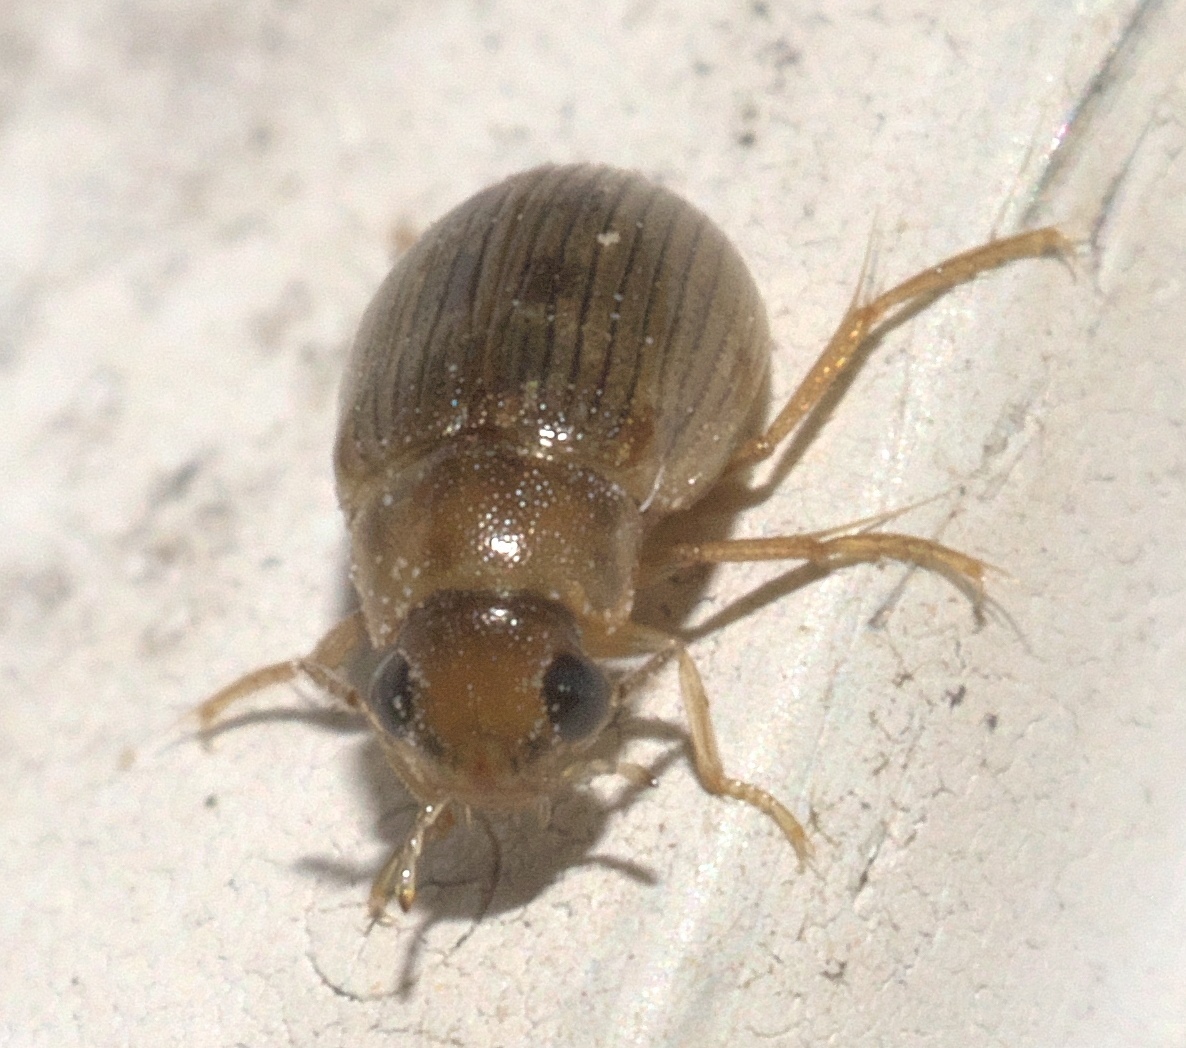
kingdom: Animalia
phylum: Arthropoda
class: Insecta
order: Coleoptera
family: Hydrophilidae
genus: Berosus
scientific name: Berosus exiguus
